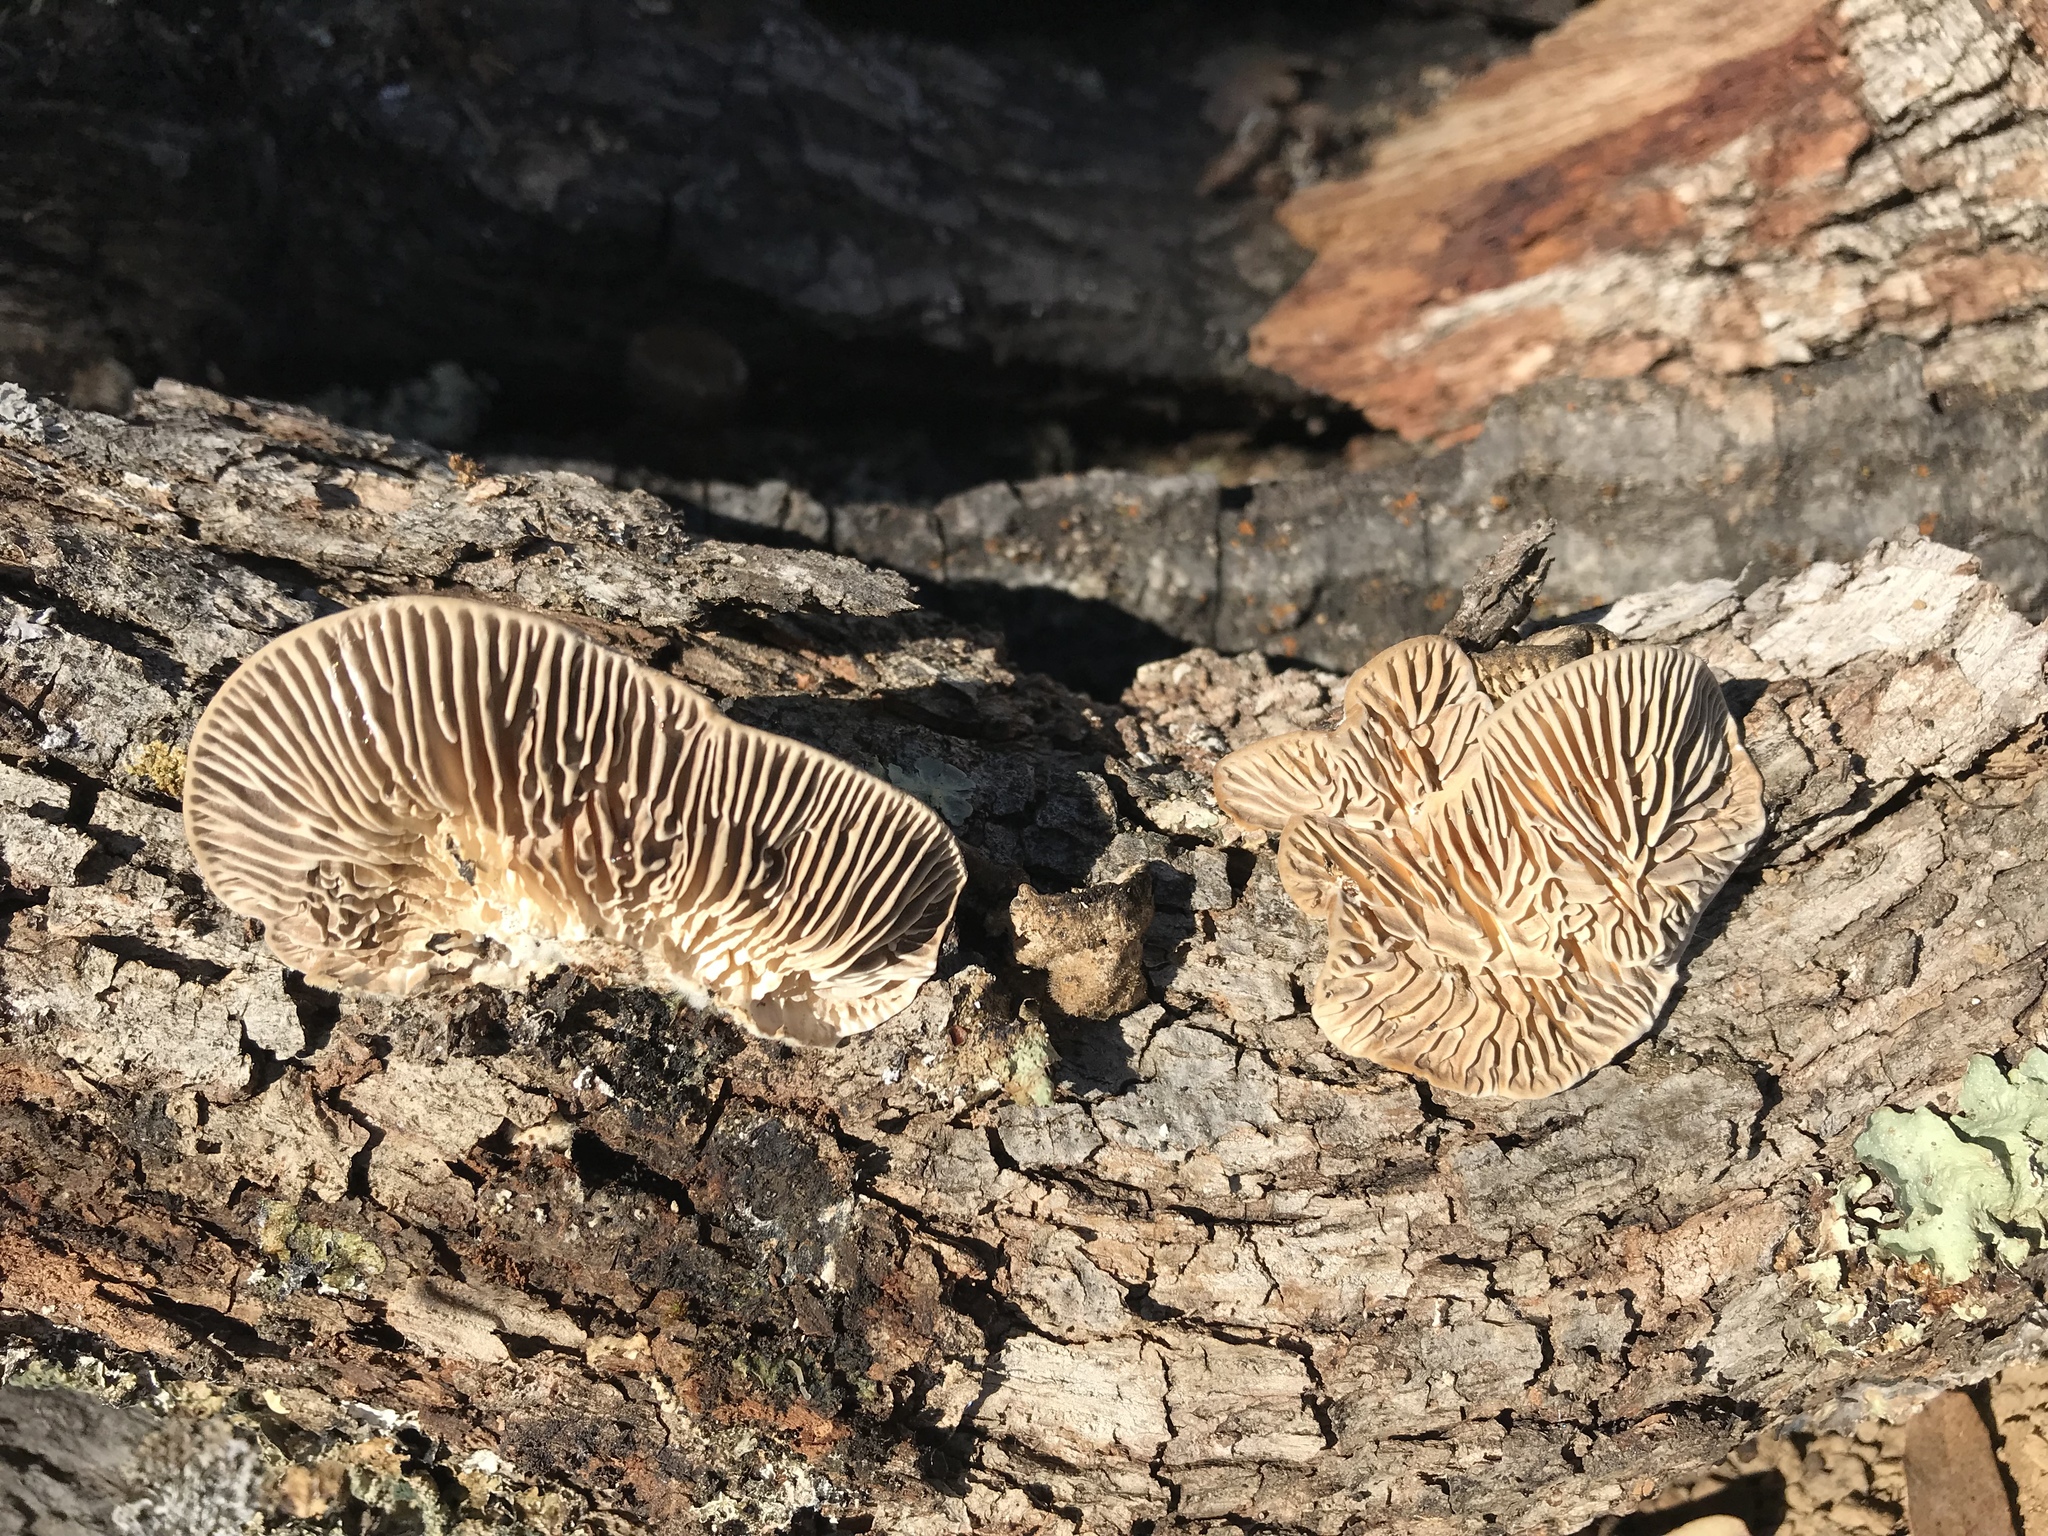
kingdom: Fungi
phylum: Basidiomycota
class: Agaricomycetes
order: Polyporales
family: Polyporaceae
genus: Lenzites
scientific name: Lenzites betulinus
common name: Birch mazegill
